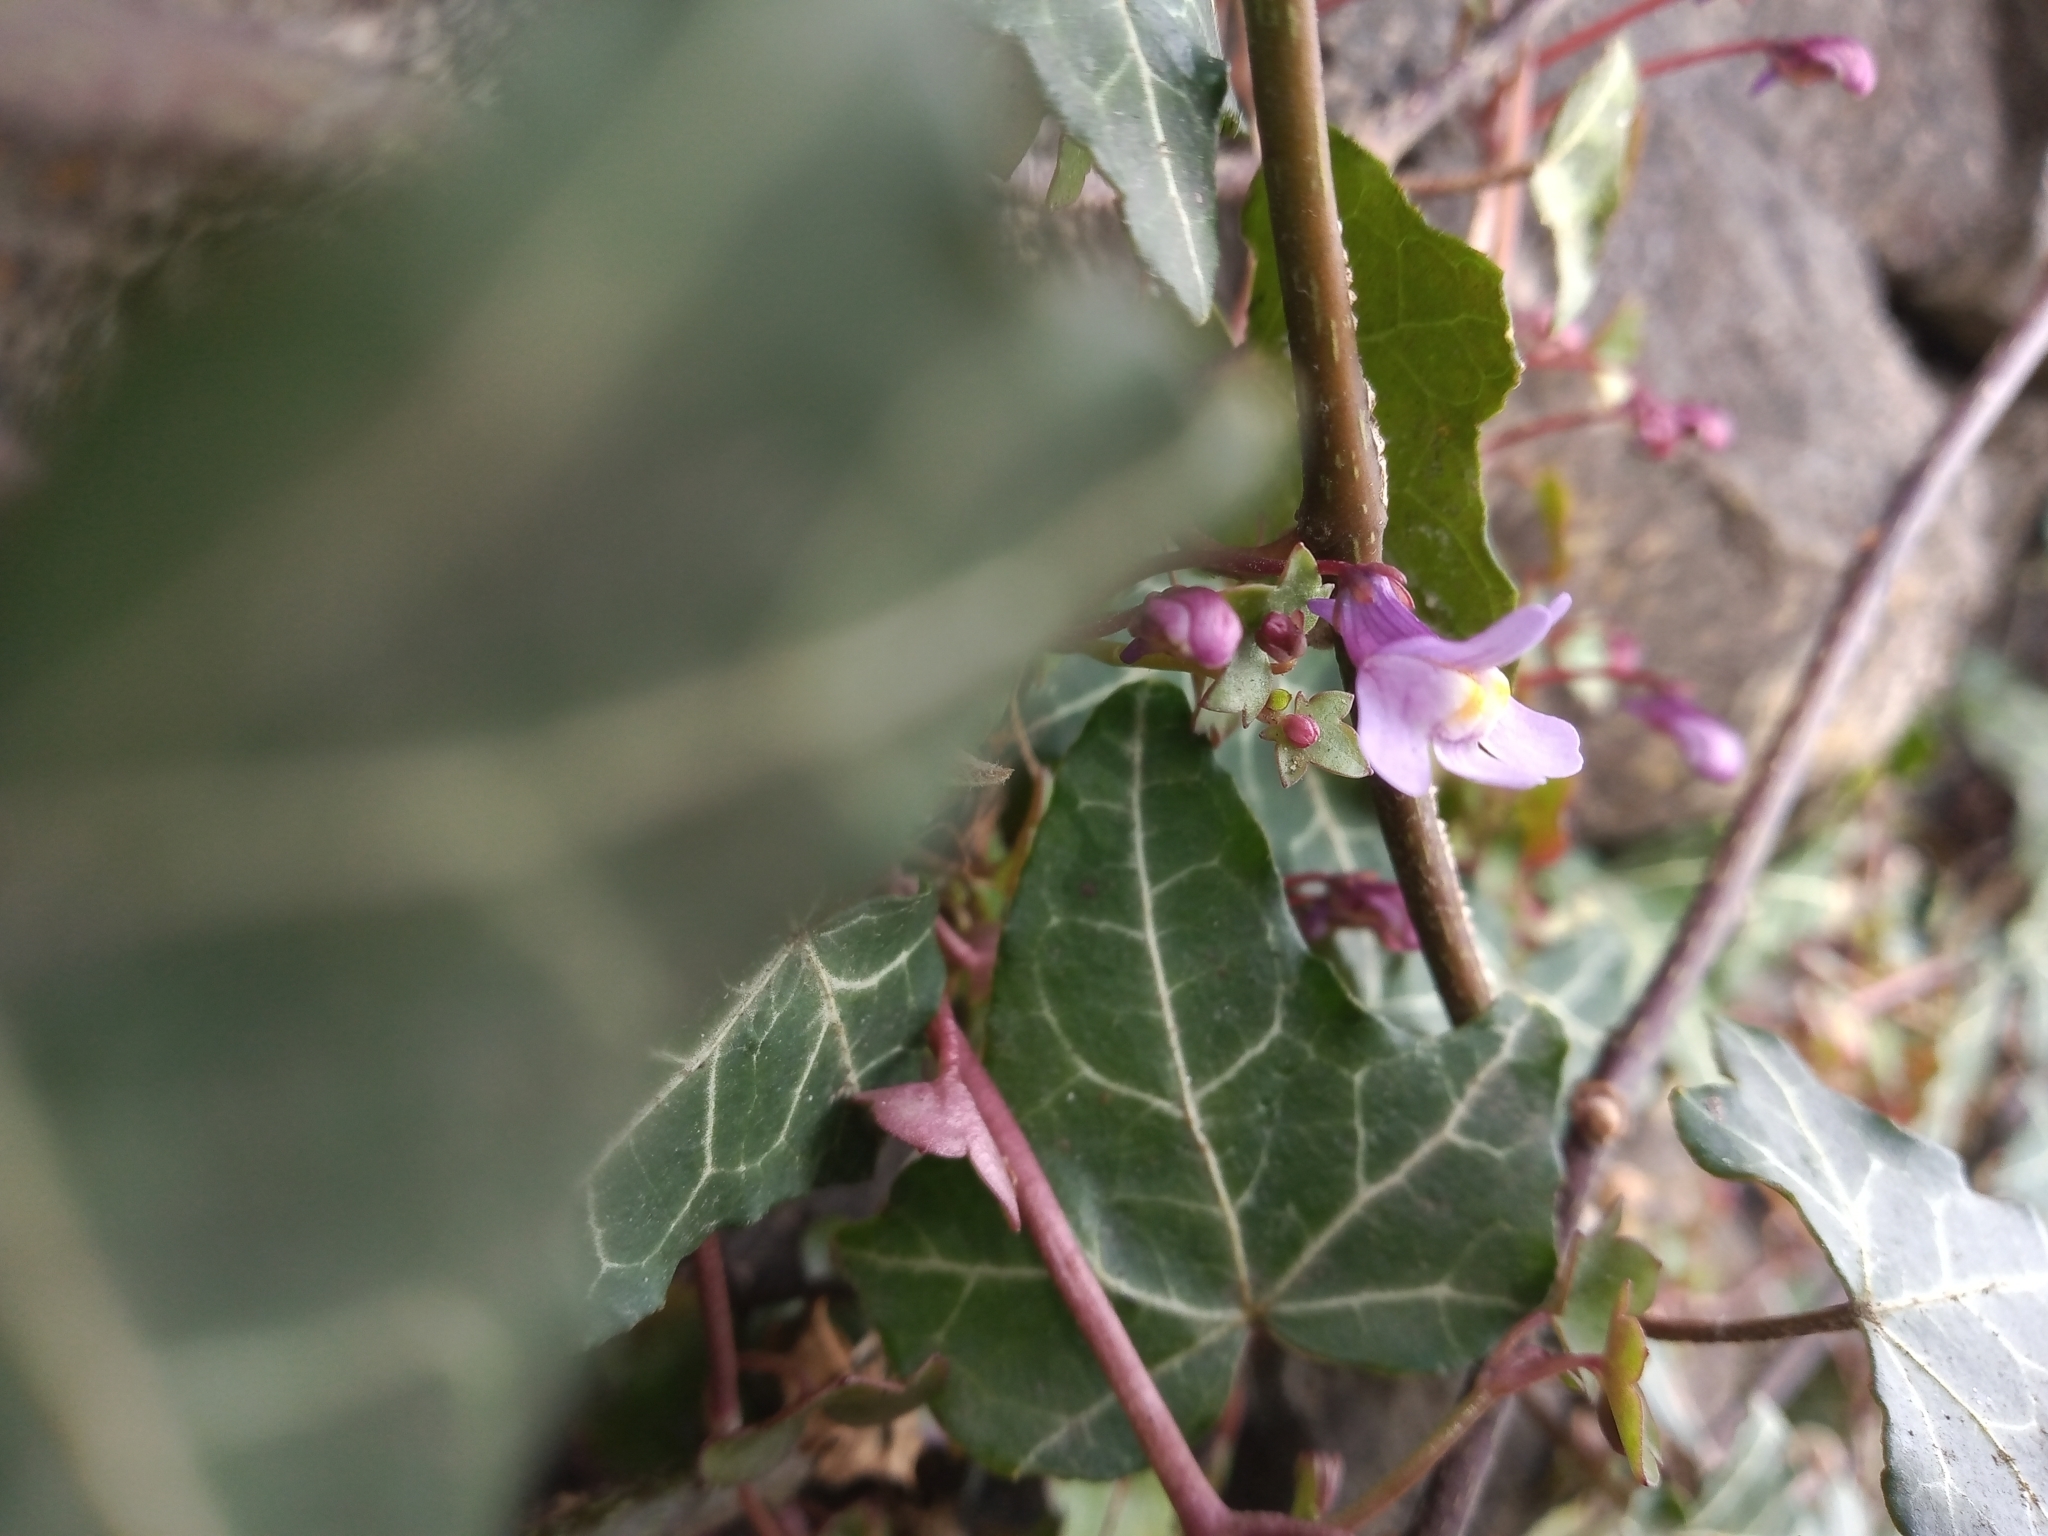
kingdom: Plantae
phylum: Tracheophyta
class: Magnoliopsida
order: Lamiales
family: Plantaginaceae
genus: Cymbalaria
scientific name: Cymbalaria muralis
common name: Ivy-leaved toadflax
